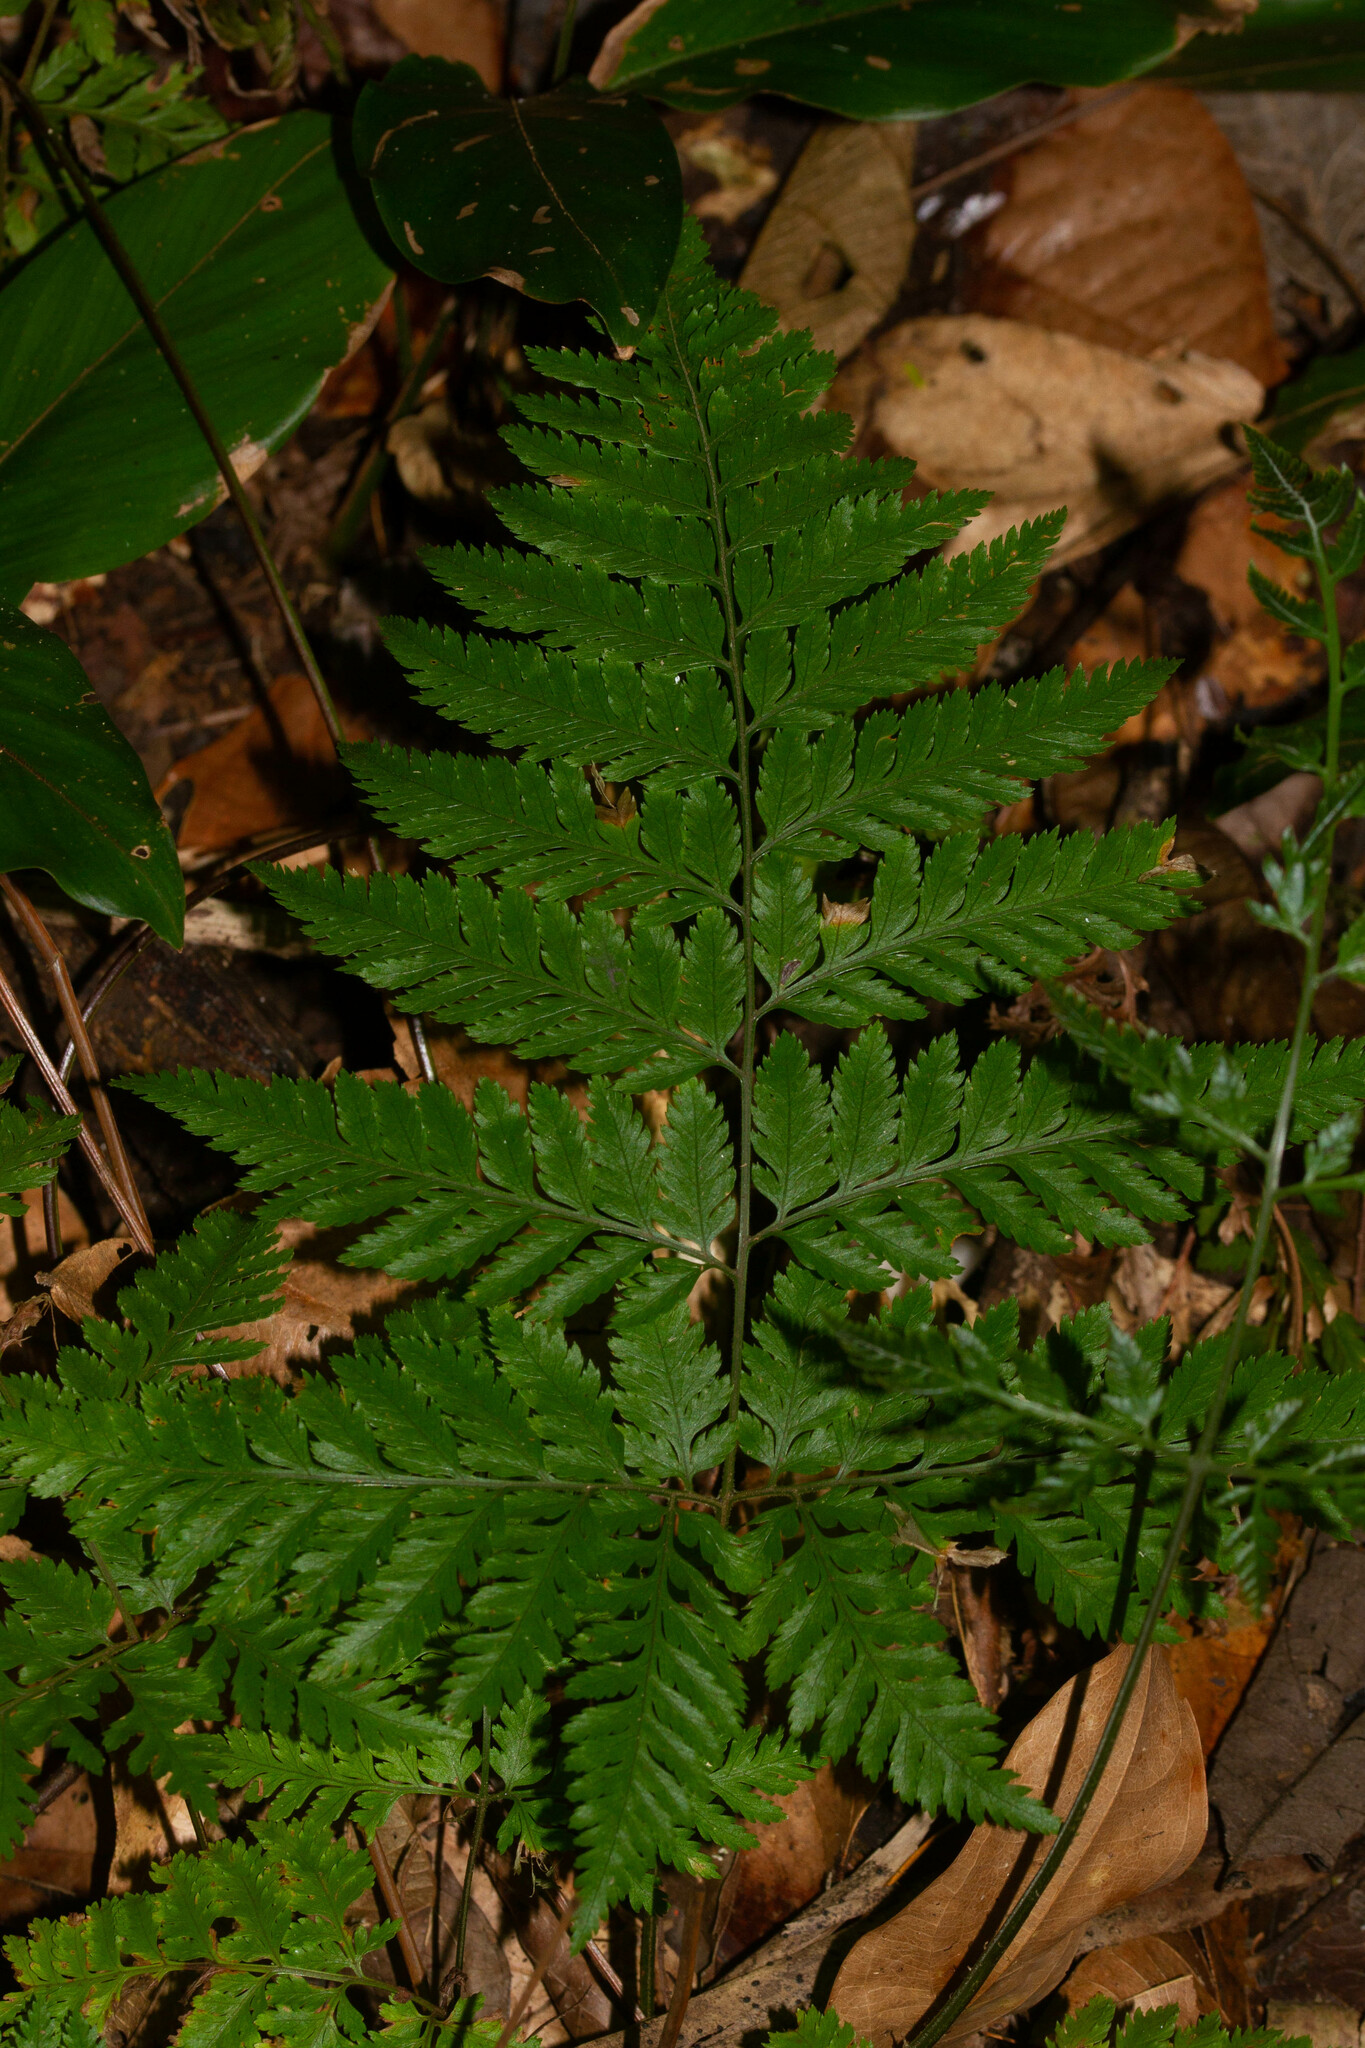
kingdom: Plantae
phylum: Tracheophyta
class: Polypodiopsida
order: Polypodiales
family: Dryopteridaceae
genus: Parapolystichum
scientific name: Parapolystichum effusum
